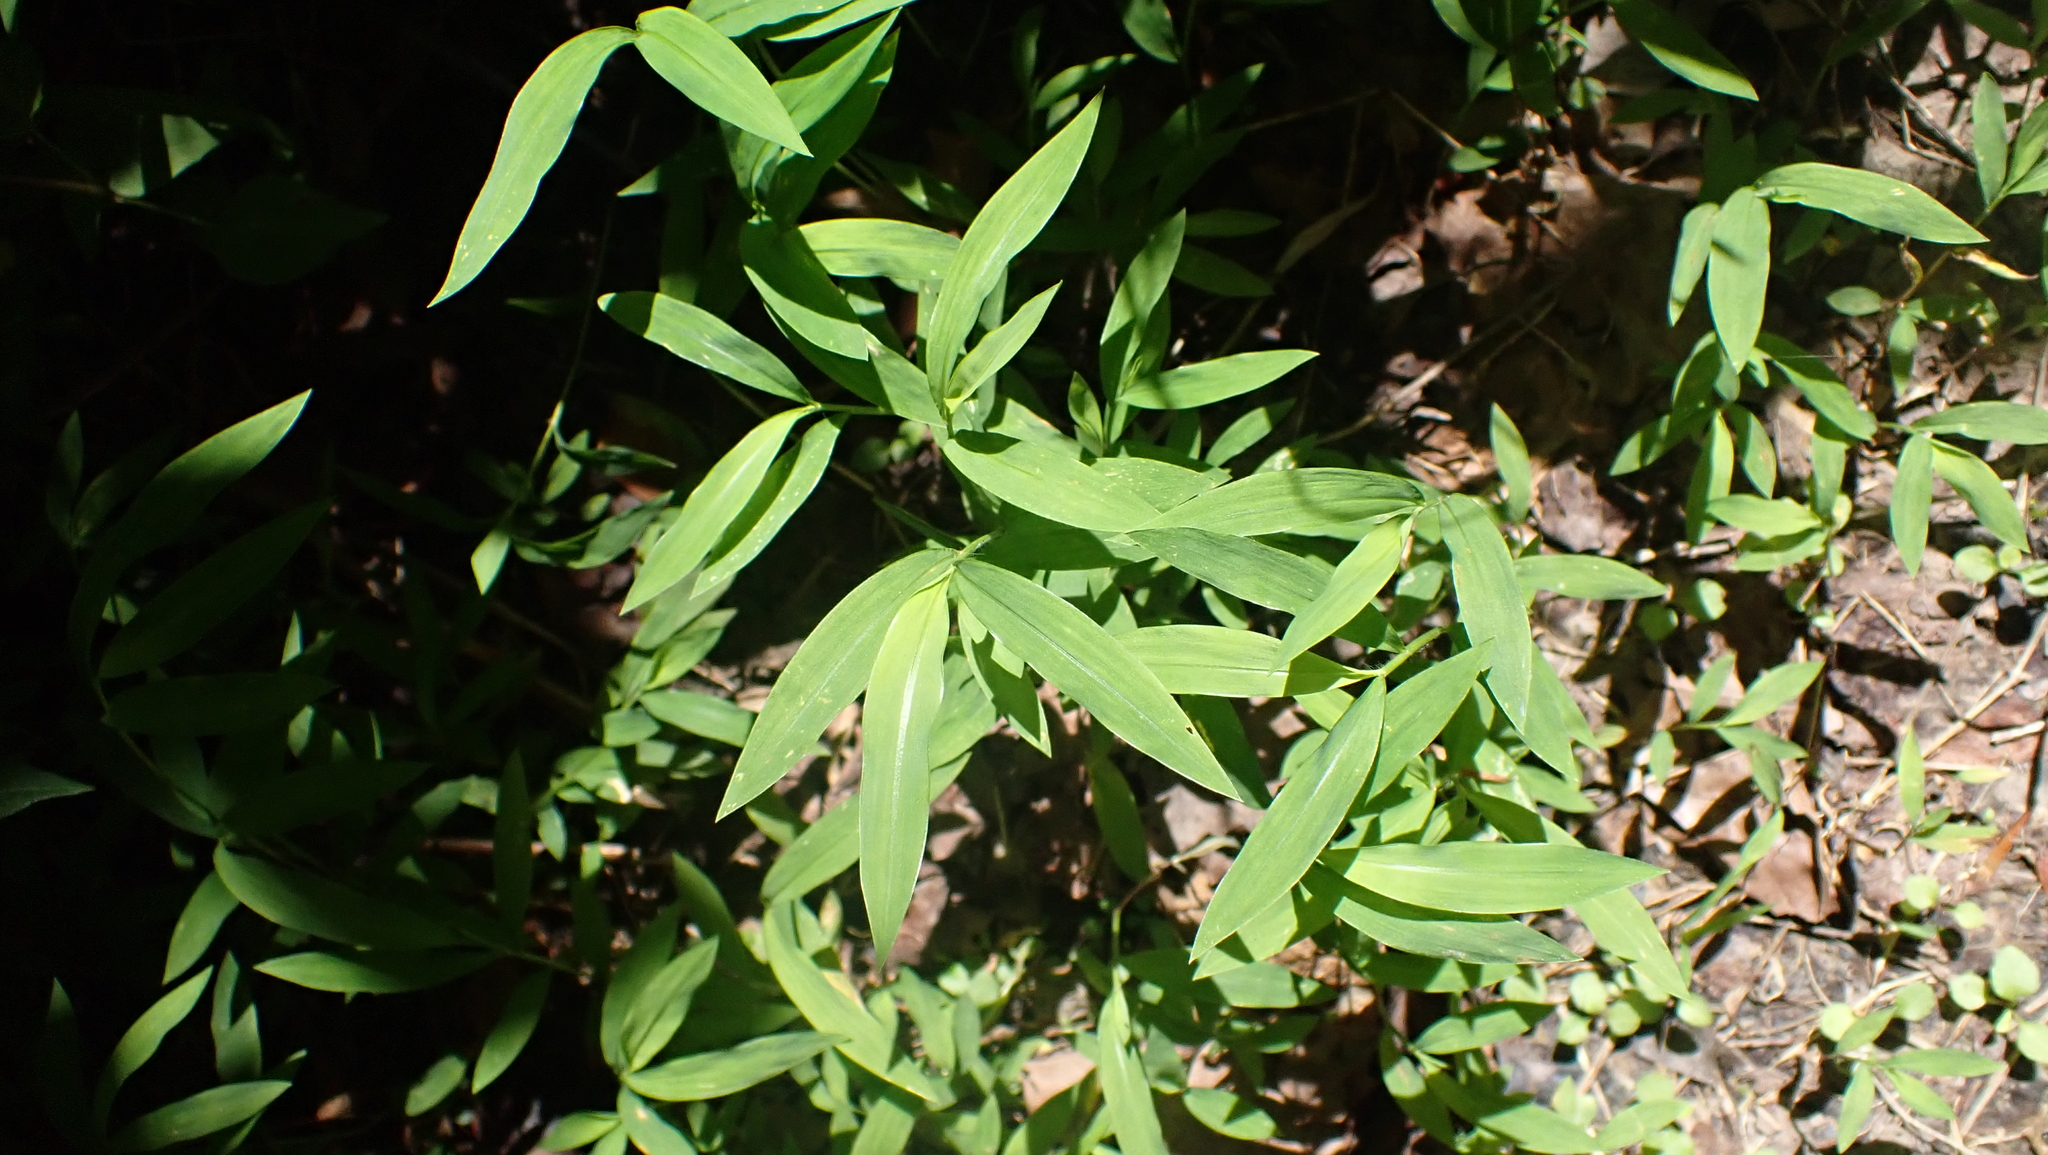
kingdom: Plantae
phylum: Tracheophyta
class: Liliopsida
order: Poales
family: Poaceae
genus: Microstegium
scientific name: Microstegium vimineum
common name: Japanese stiltgrass
